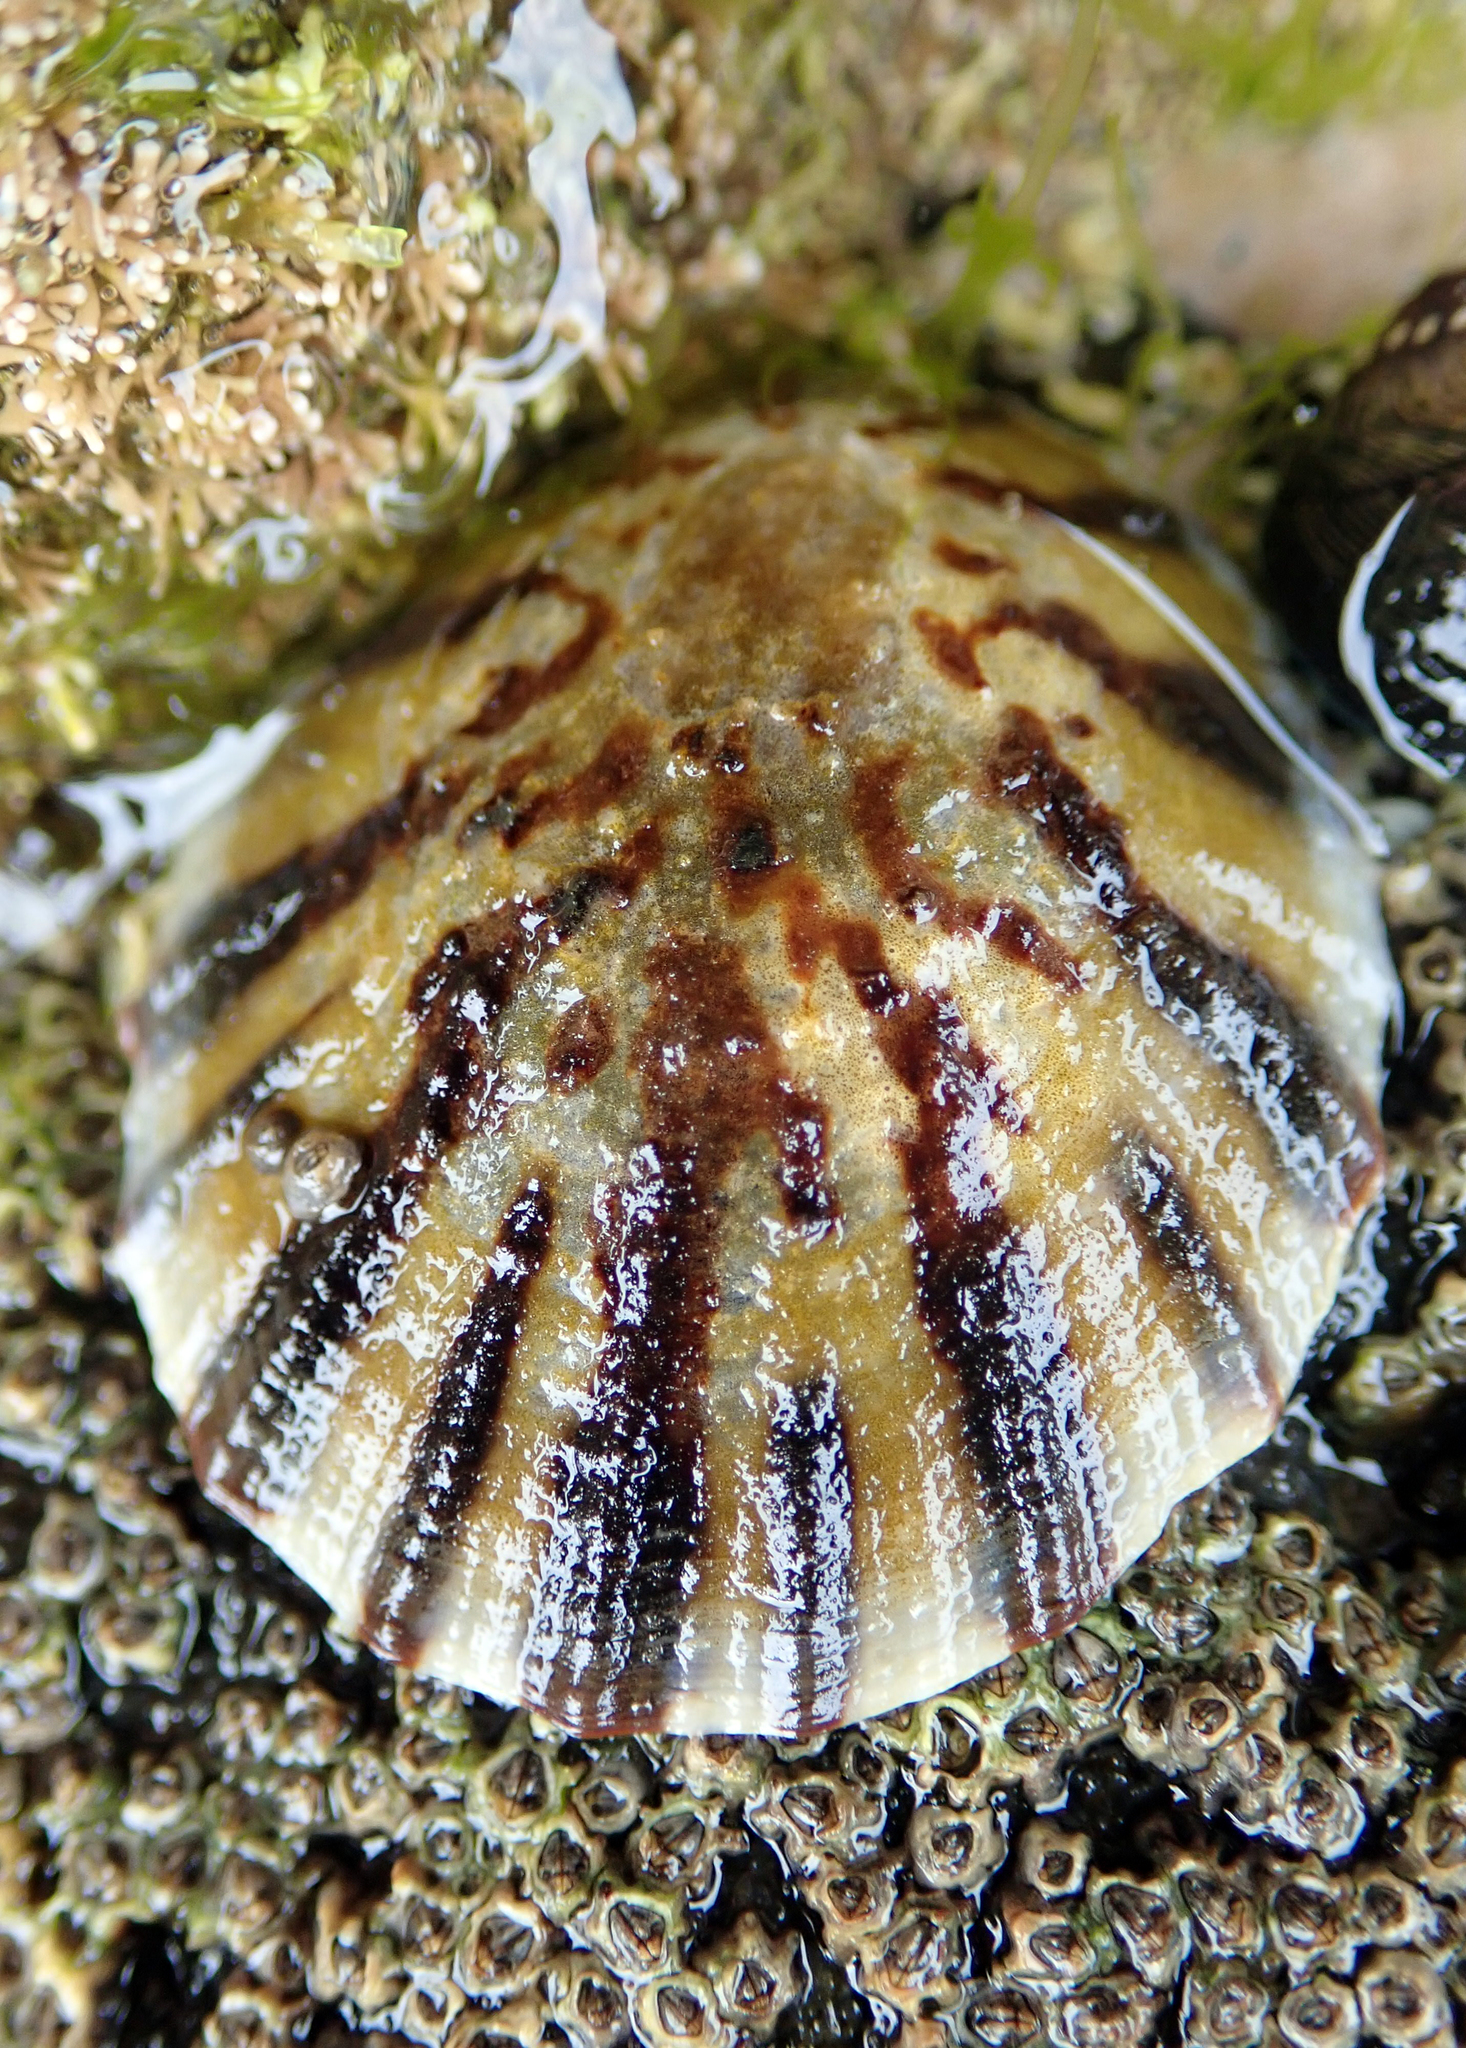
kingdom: Animalia
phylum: Mollusca
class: Gastropoda
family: Nacellidae
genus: Cellana
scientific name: Cellana radians
